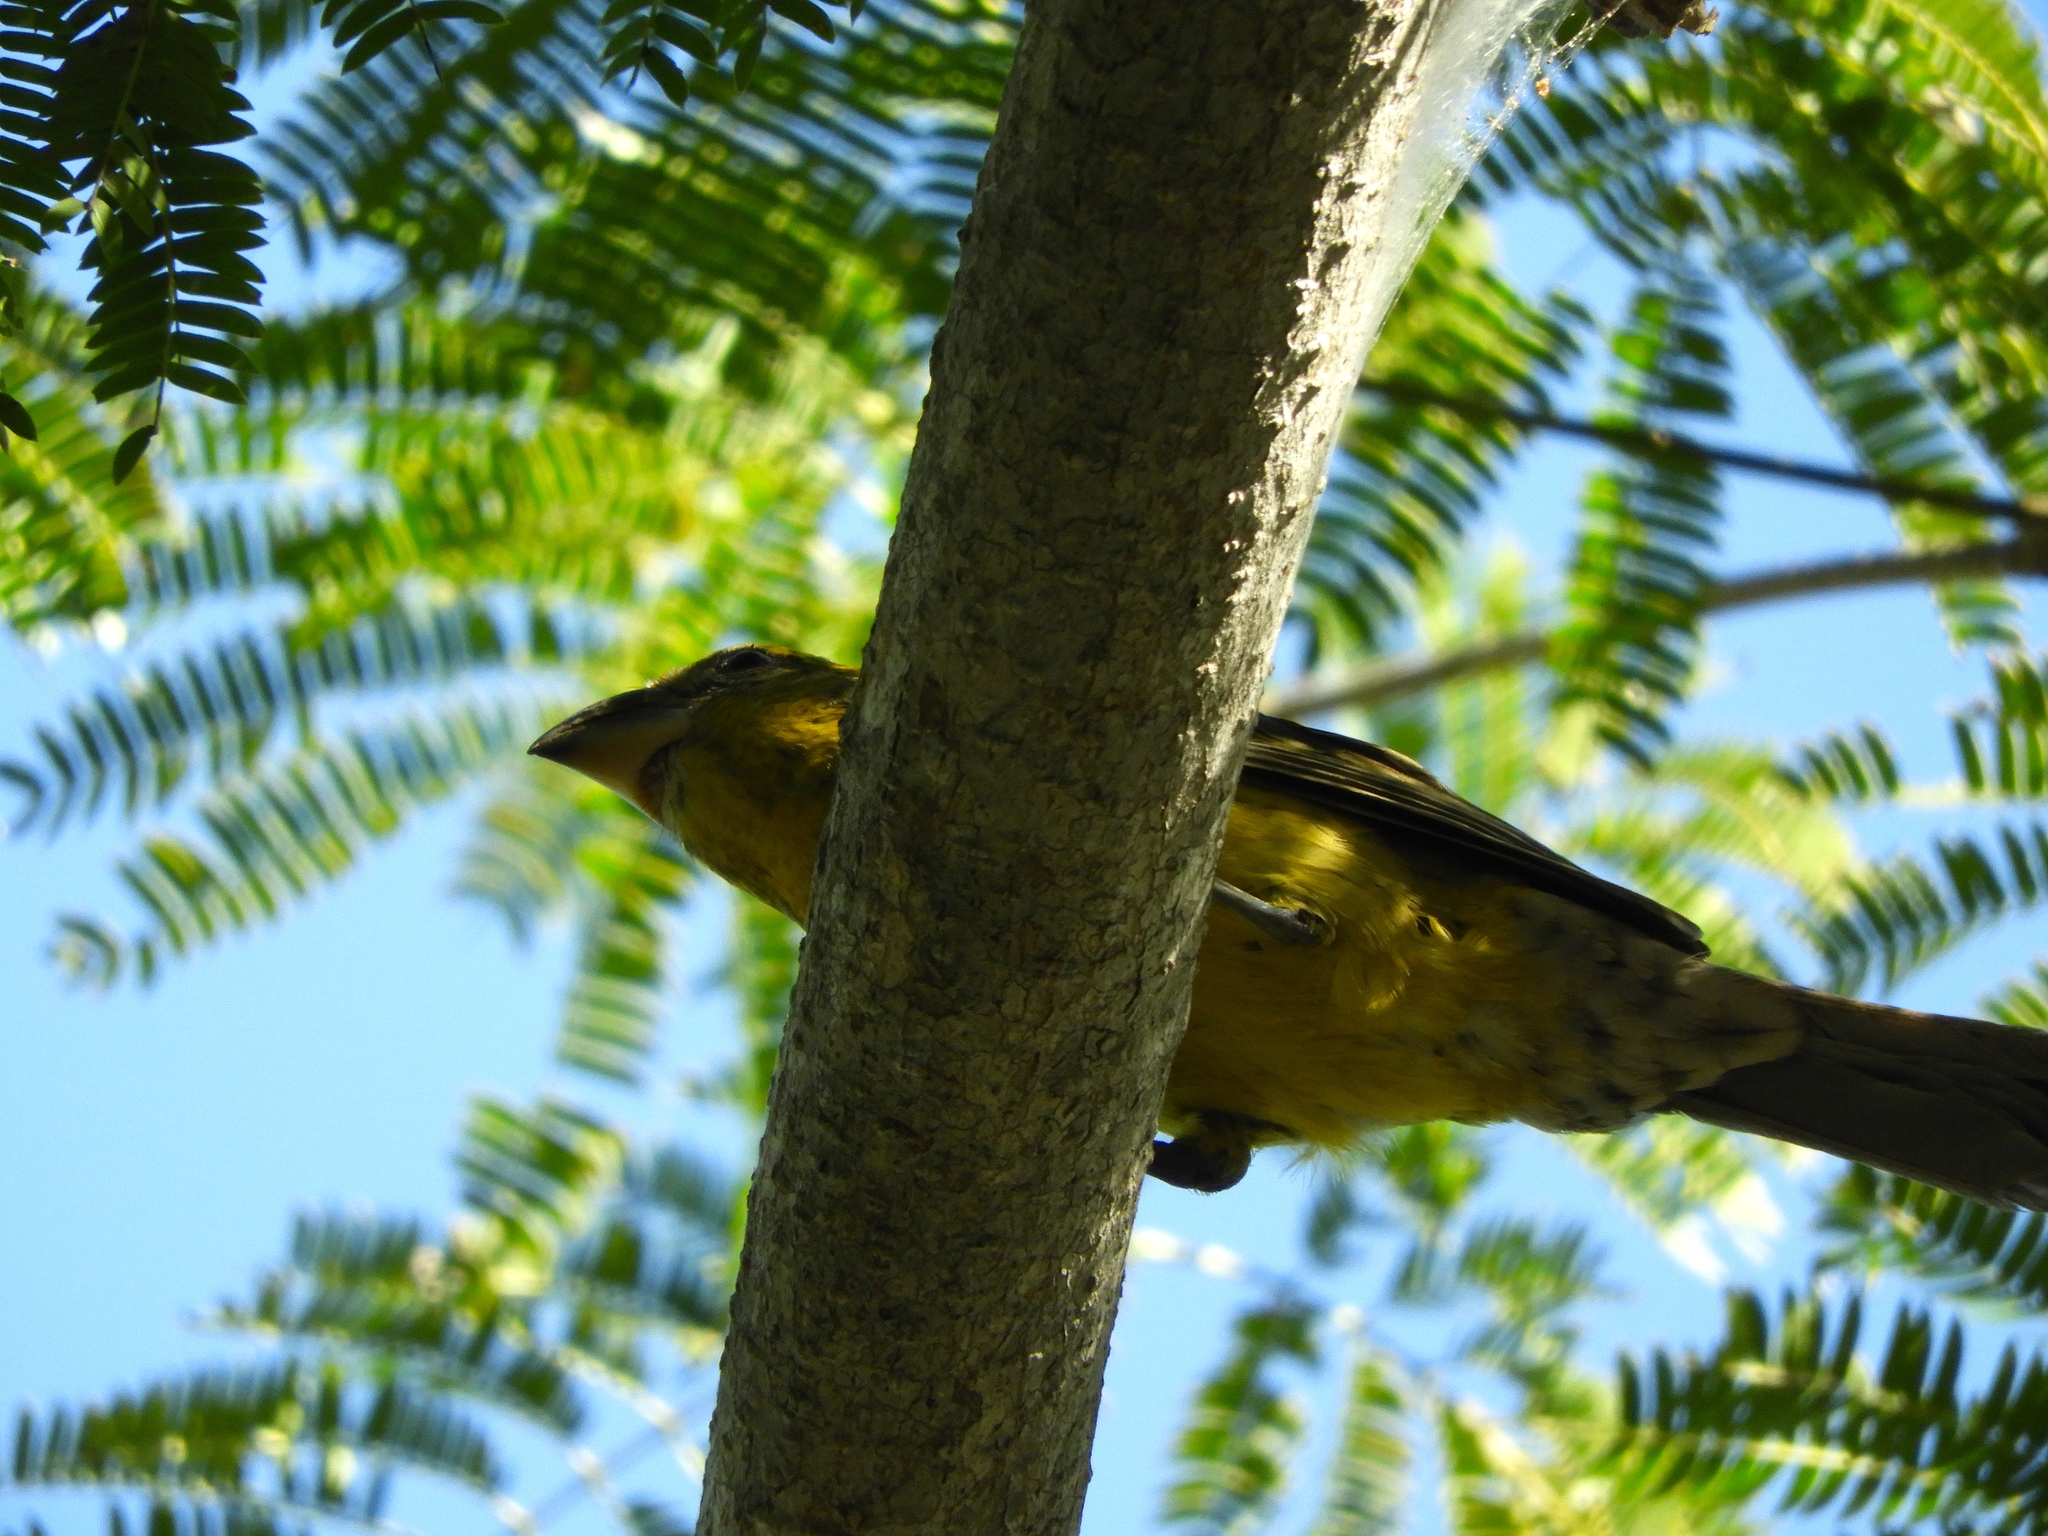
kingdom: Animalia
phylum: Chordata
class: Aves
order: Passeriformes
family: Cardinalidae
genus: Pheucticus
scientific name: Pheucticus chrysopeplus
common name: Yellow grosbeak
